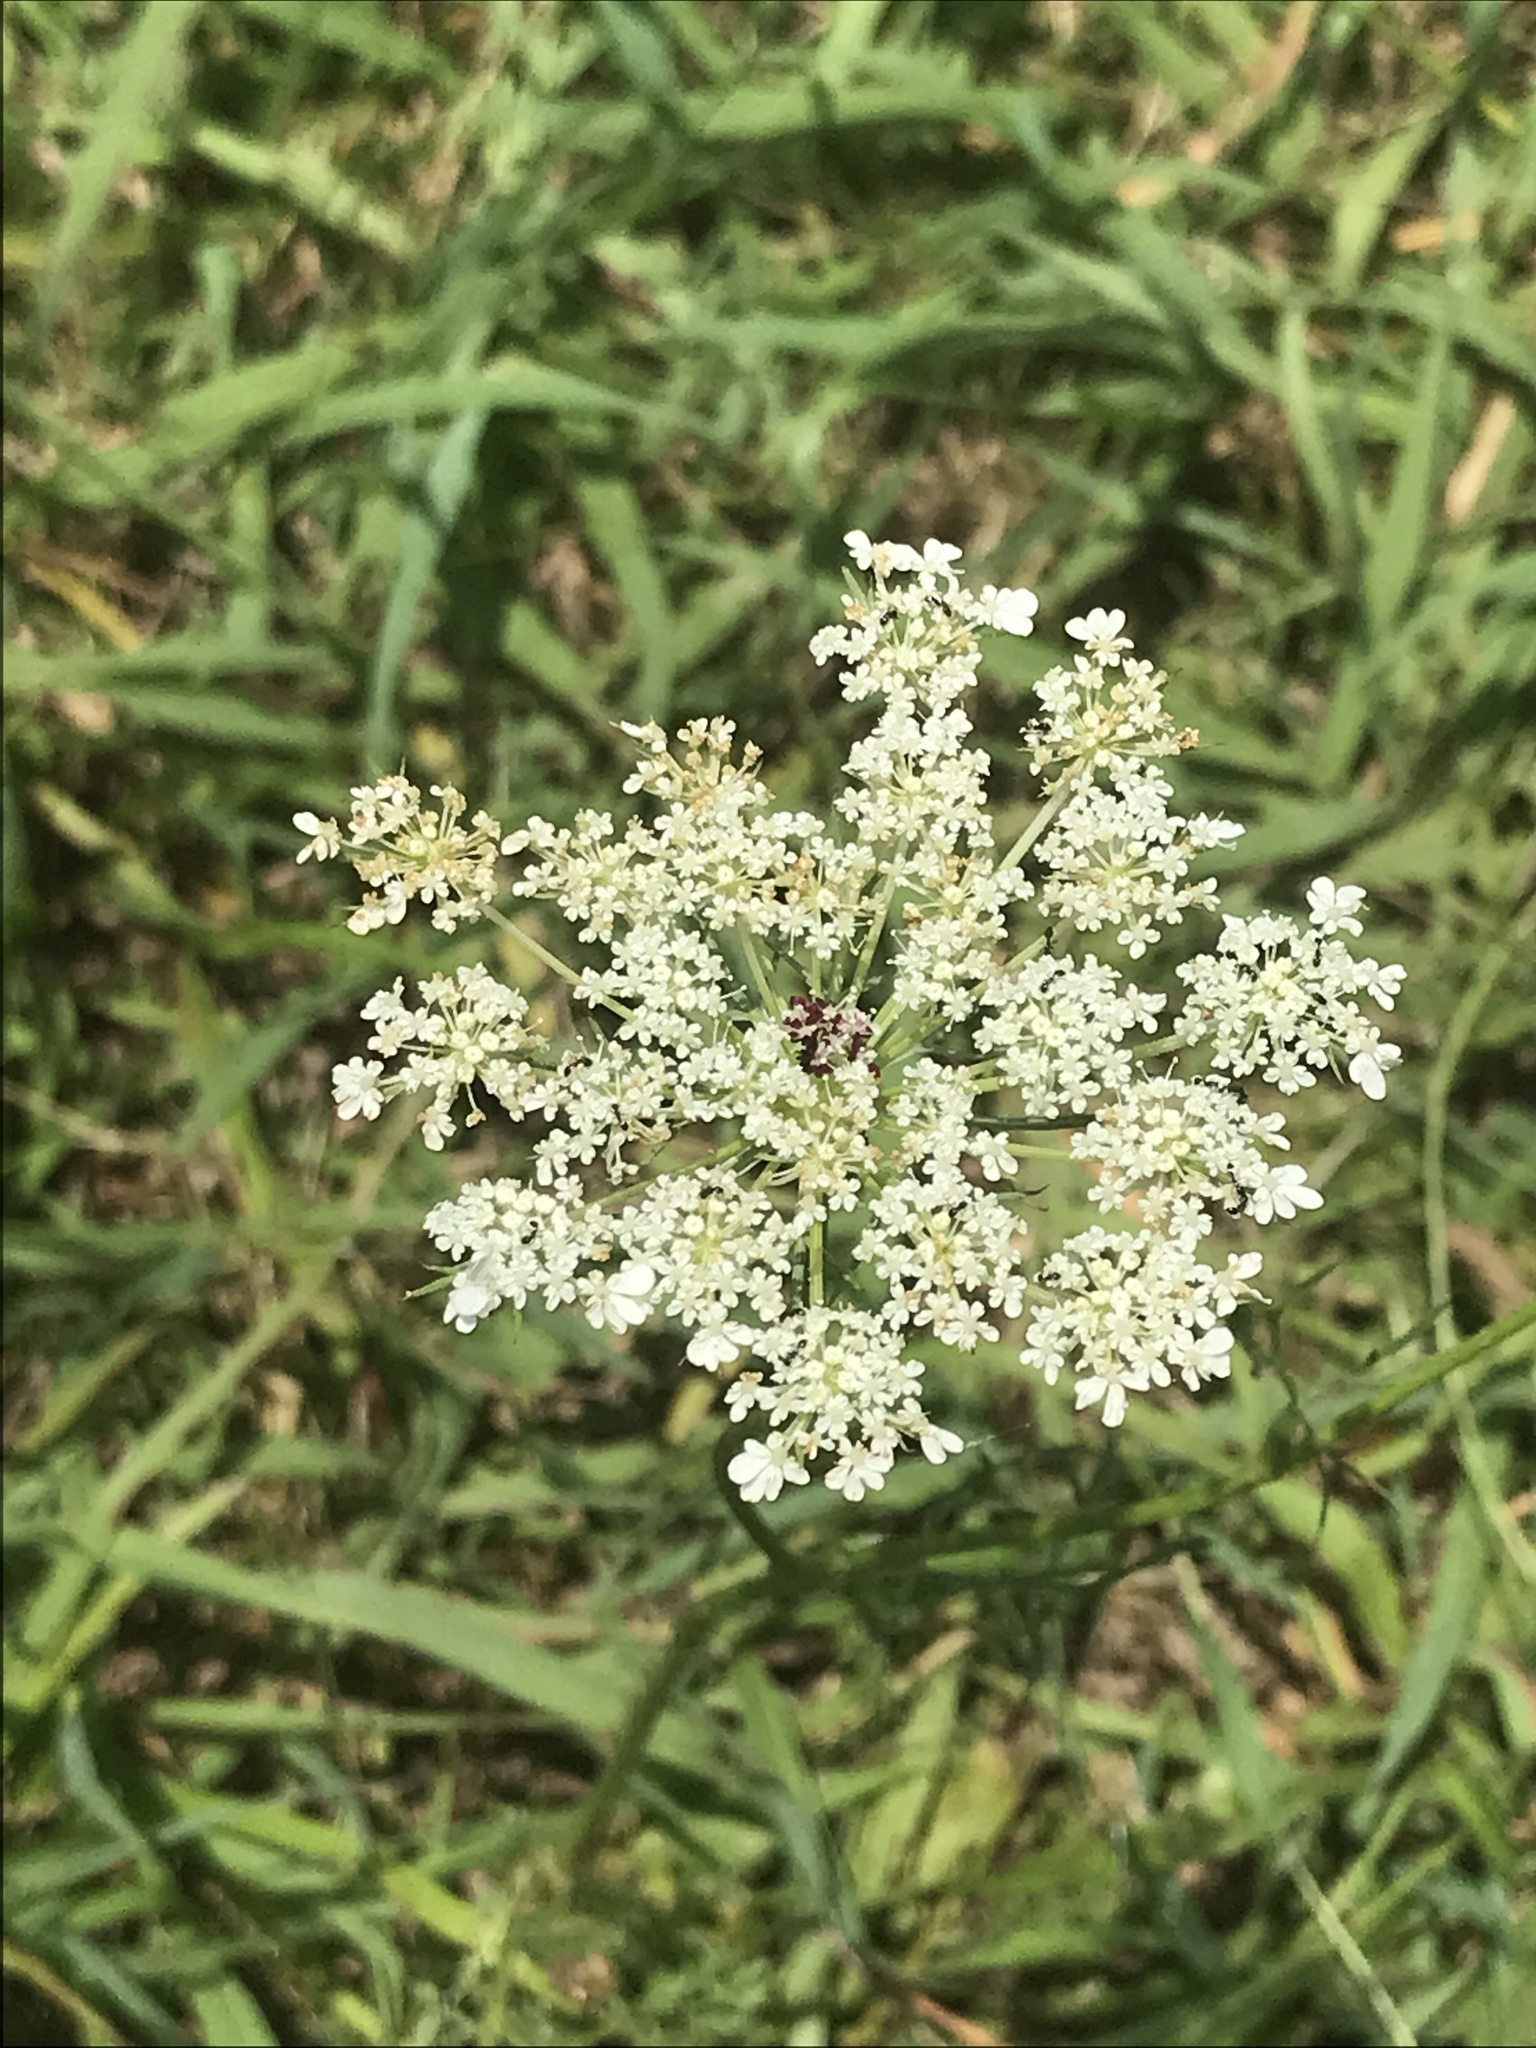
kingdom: Plantae
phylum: Tracheophyta
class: Magnoliopsida
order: Apiales
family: Apiaceae
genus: Daucus
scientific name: Daucus carota
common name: Wild carrot
